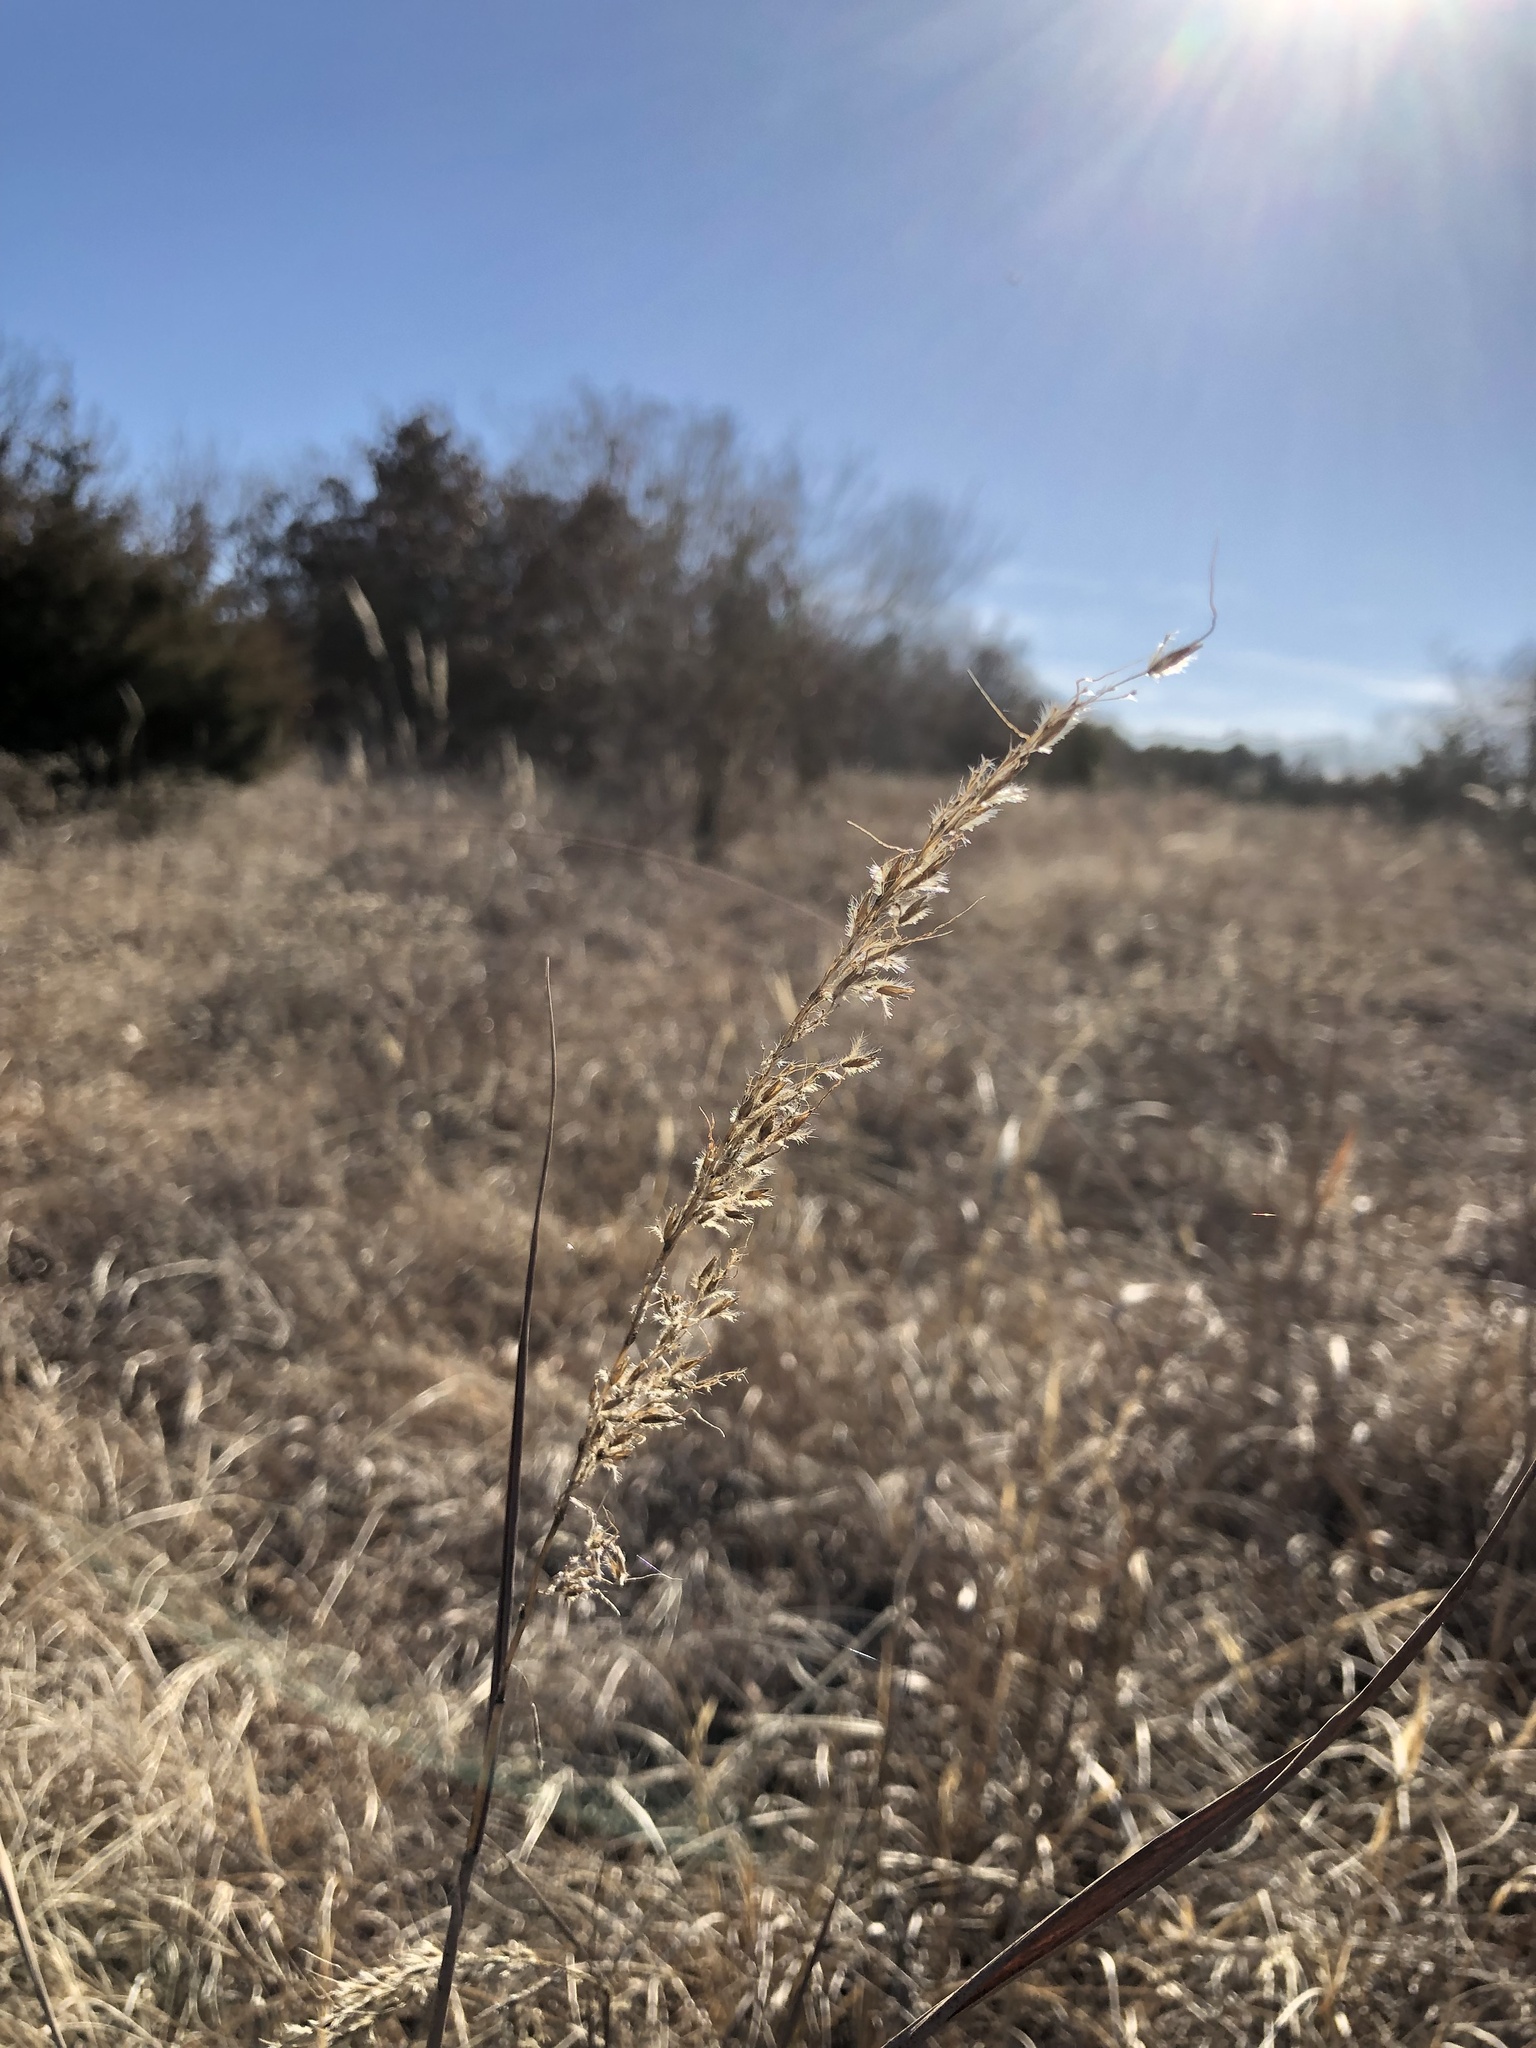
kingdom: Plantae
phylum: Tracheophyta
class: Liliopsida
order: Poales
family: Poaceae
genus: Sorghastrum
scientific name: Sorghastrum nutans
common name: Indian grass
